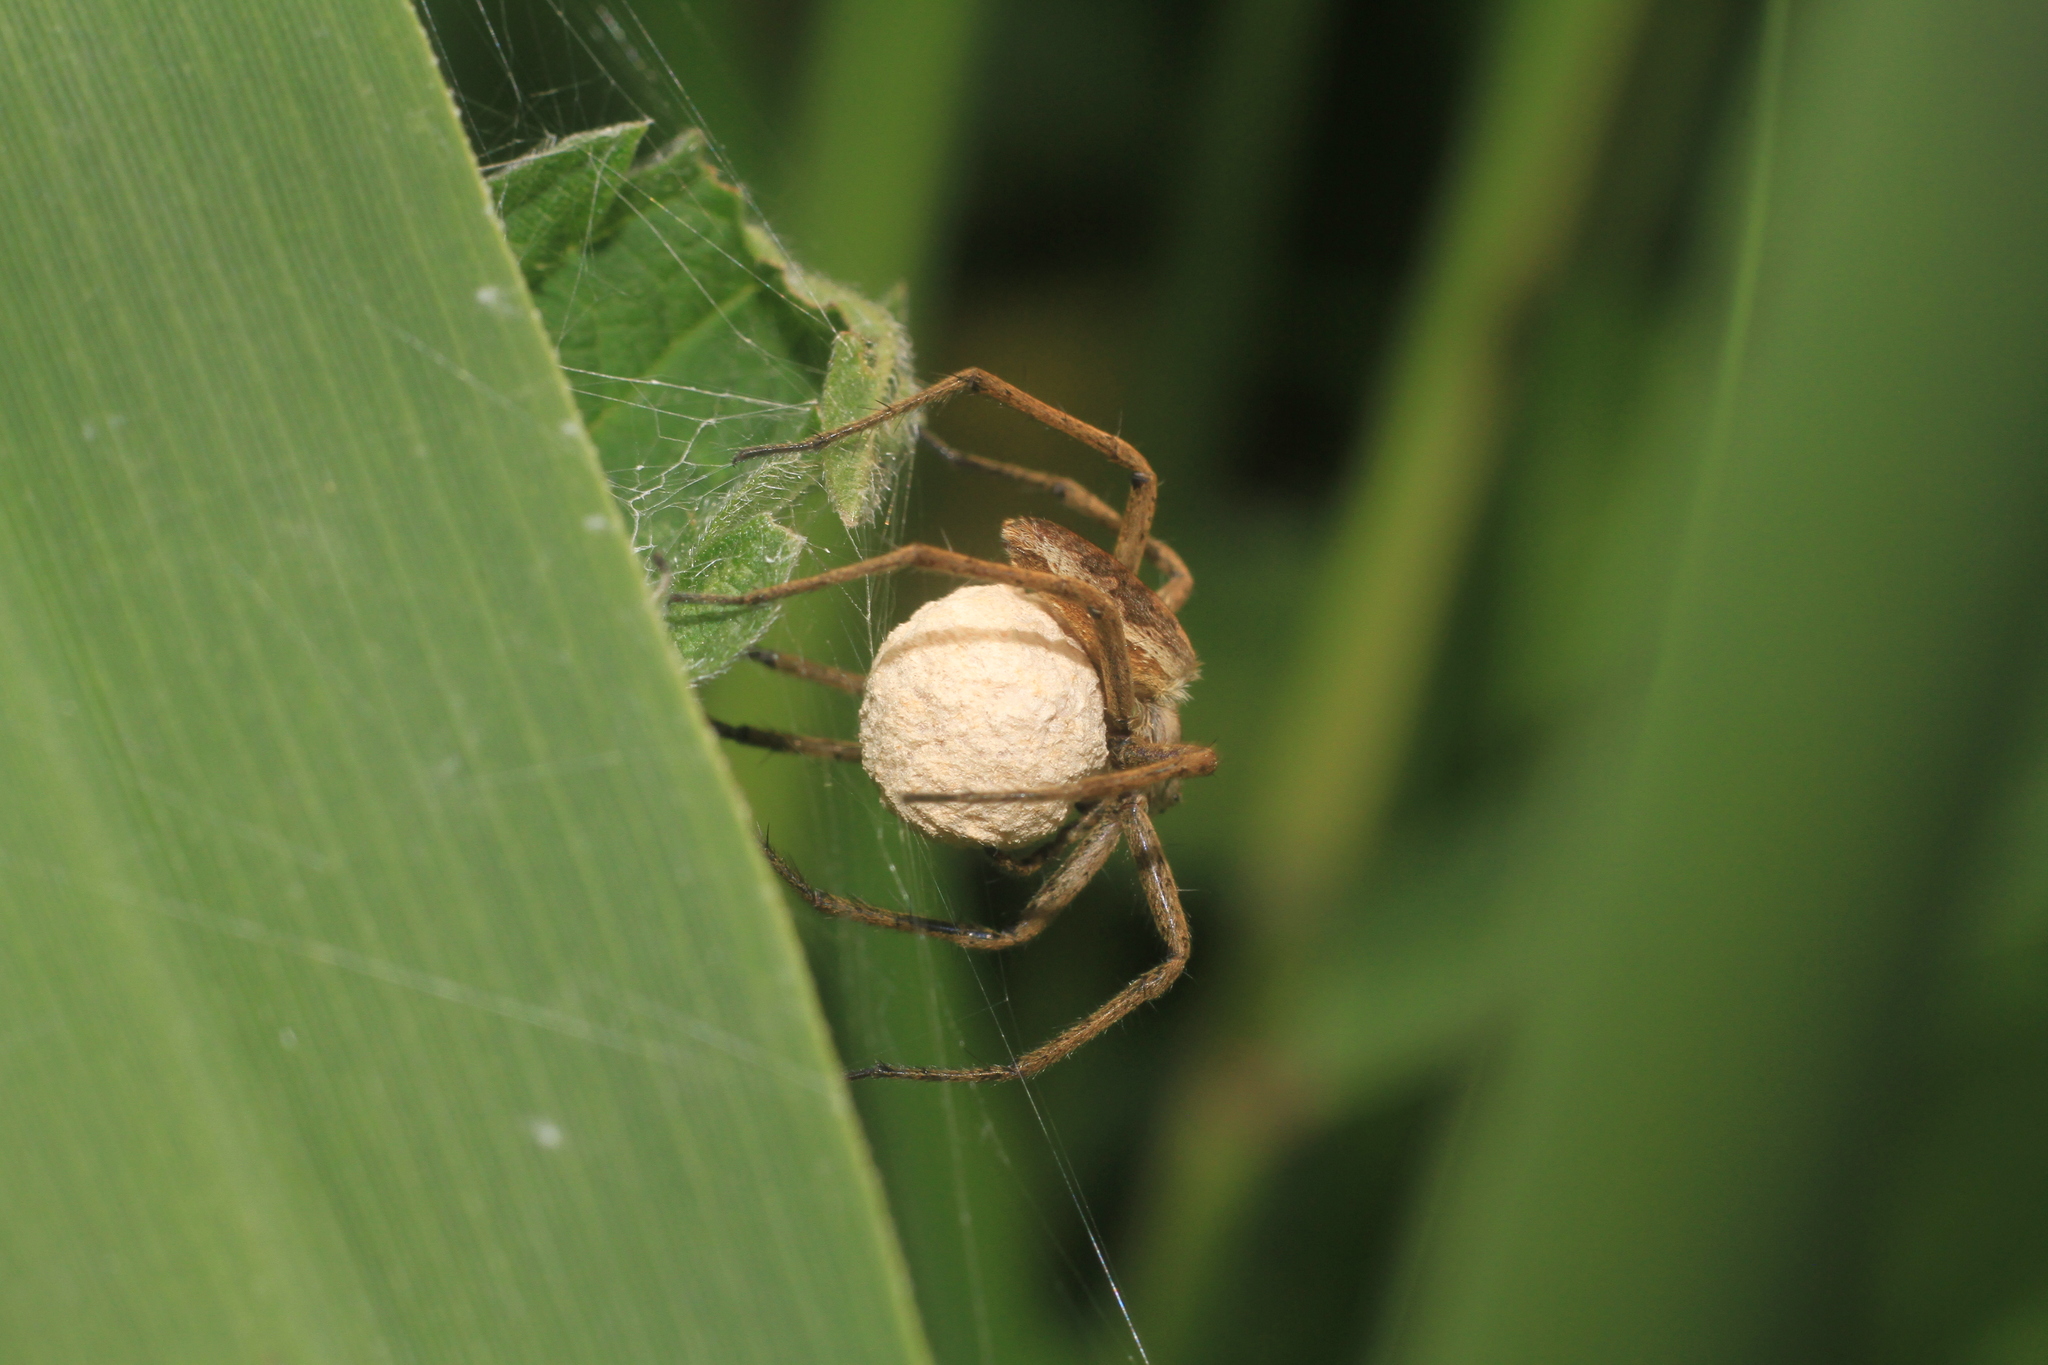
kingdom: Animalia
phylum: Arthropoda
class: Arachnida
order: Araneae
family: Pisauridae
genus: Pisaura
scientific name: Pisaura mirabilis
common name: Tent spider
